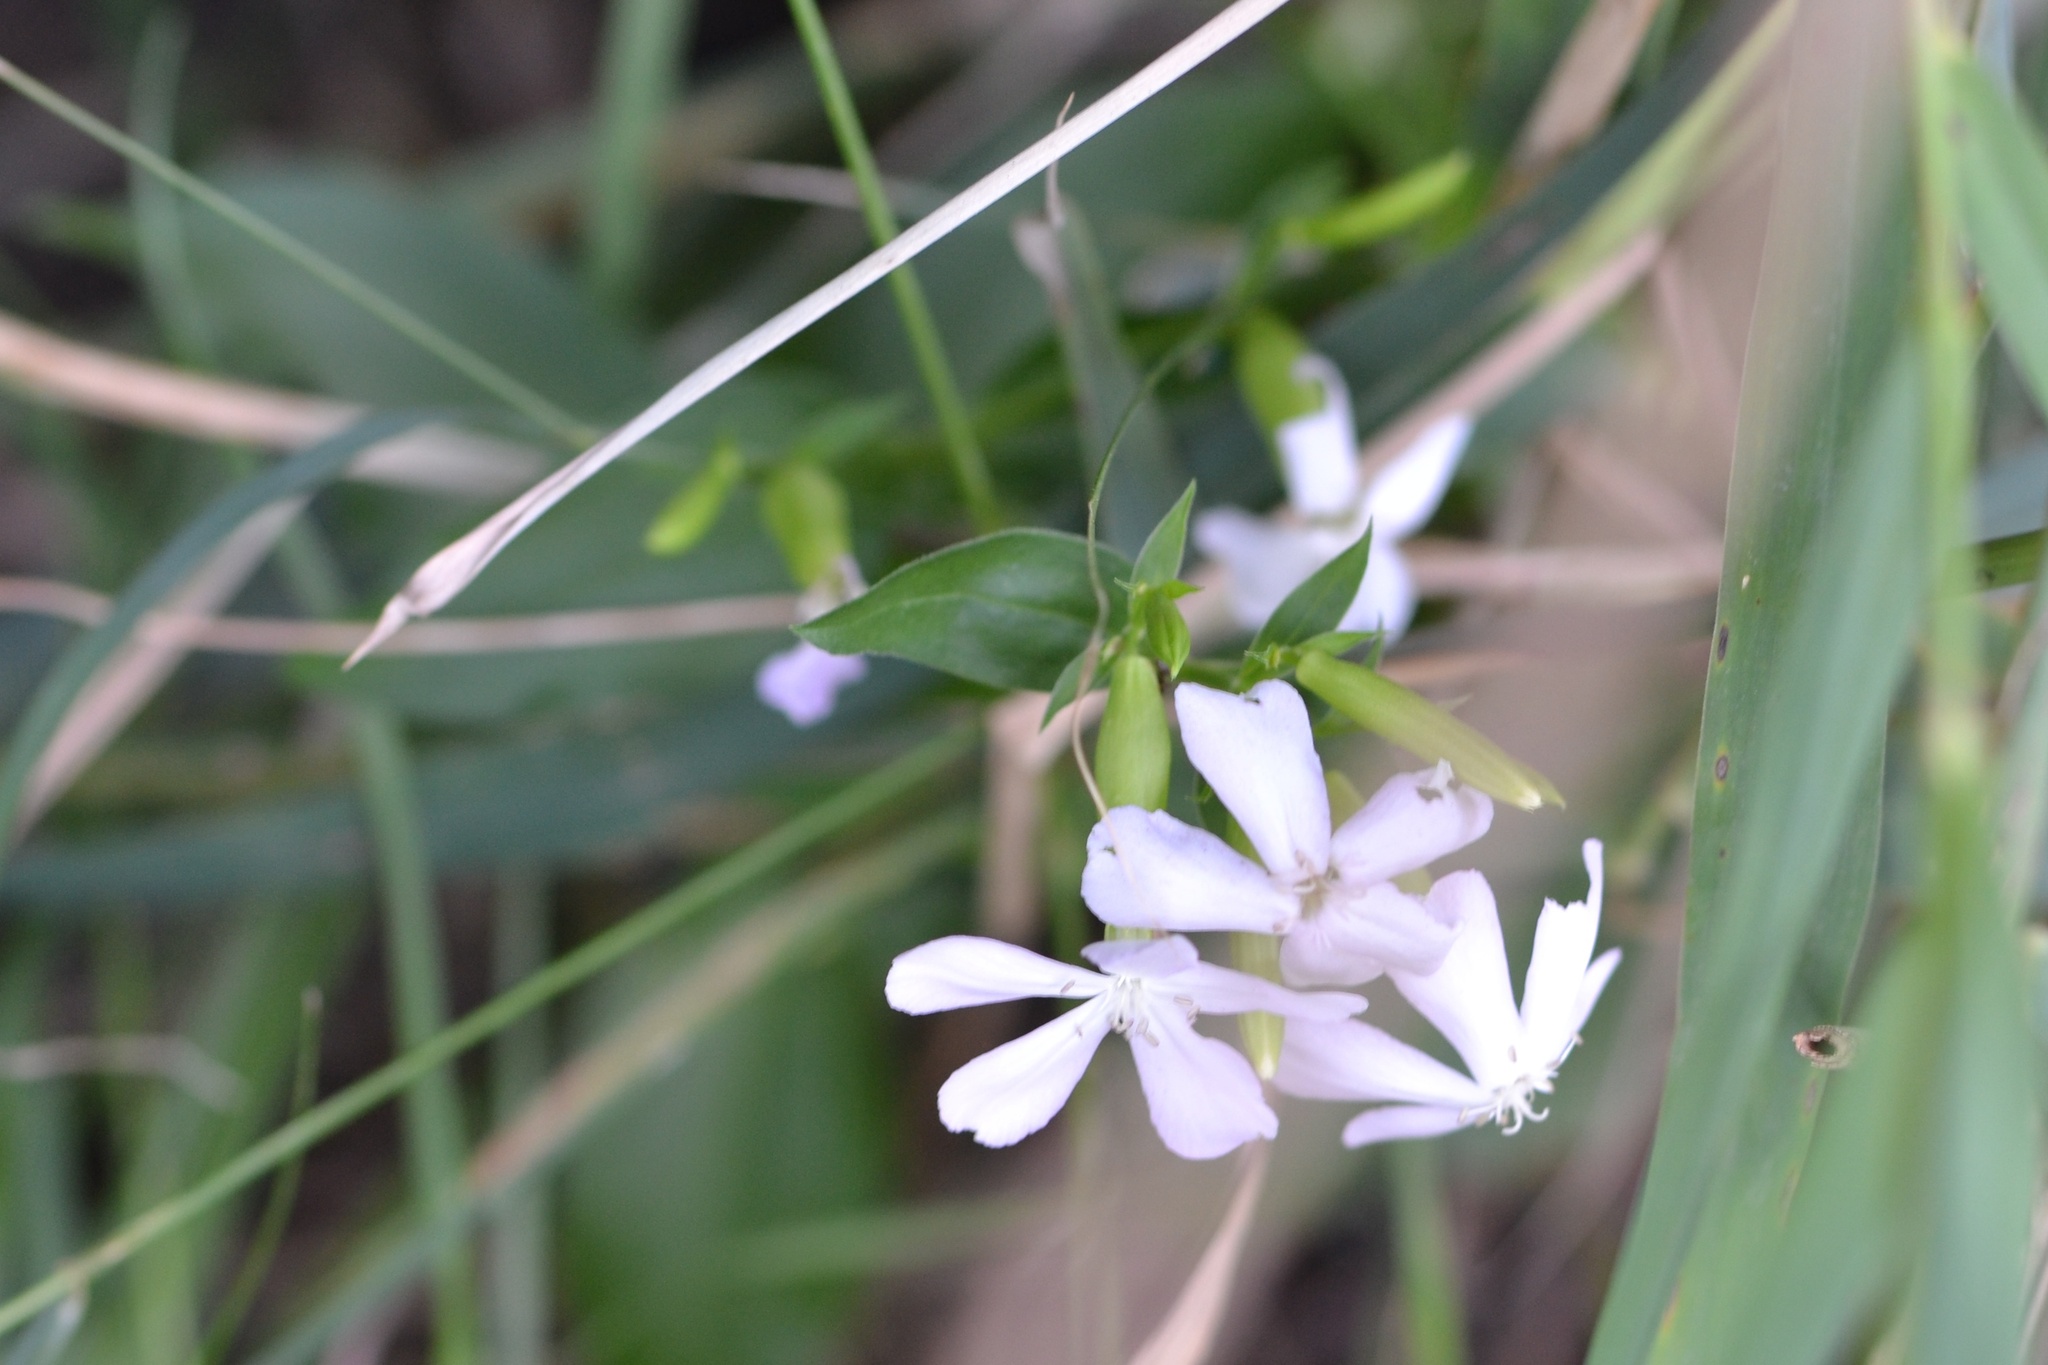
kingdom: Plantae
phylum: Tracheophyta
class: Magnoliopsida
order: Caryophyllales
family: Caryophyllaceae
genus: Saponaria
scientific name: Saponaria officinalis
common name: Soapwort
